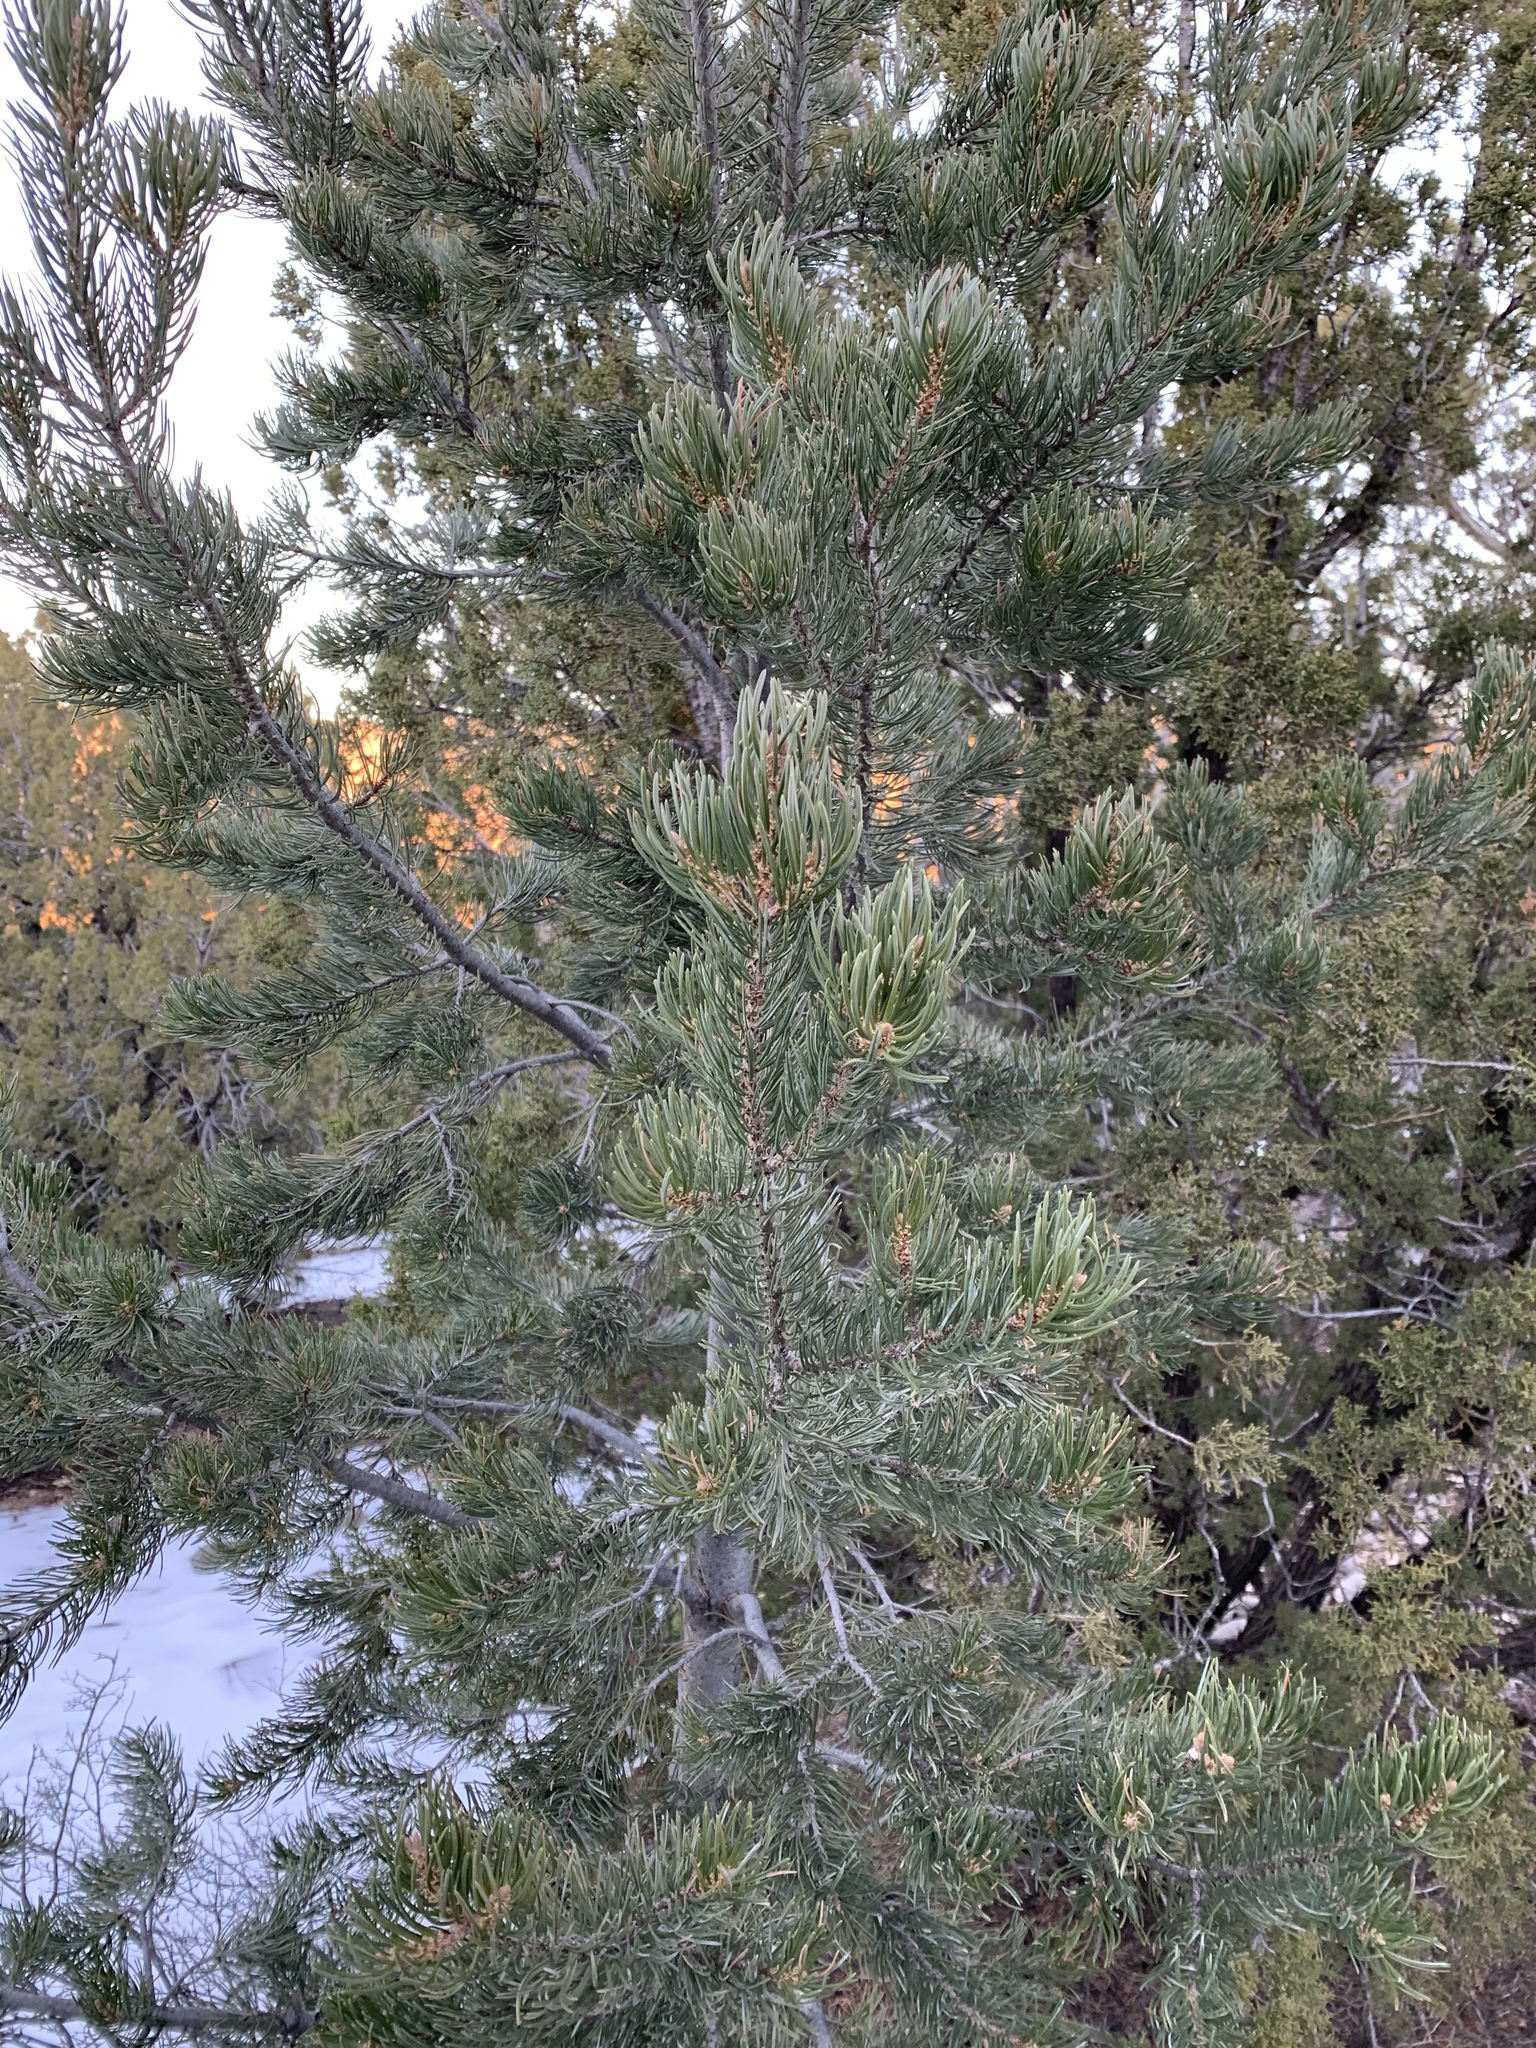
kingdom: Plantae
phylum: Tracheophyta
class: Pinopsida
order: Pinales
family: Pinaceae
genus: Pinus
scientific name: Pinus edulis
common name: Colorado pinyon
